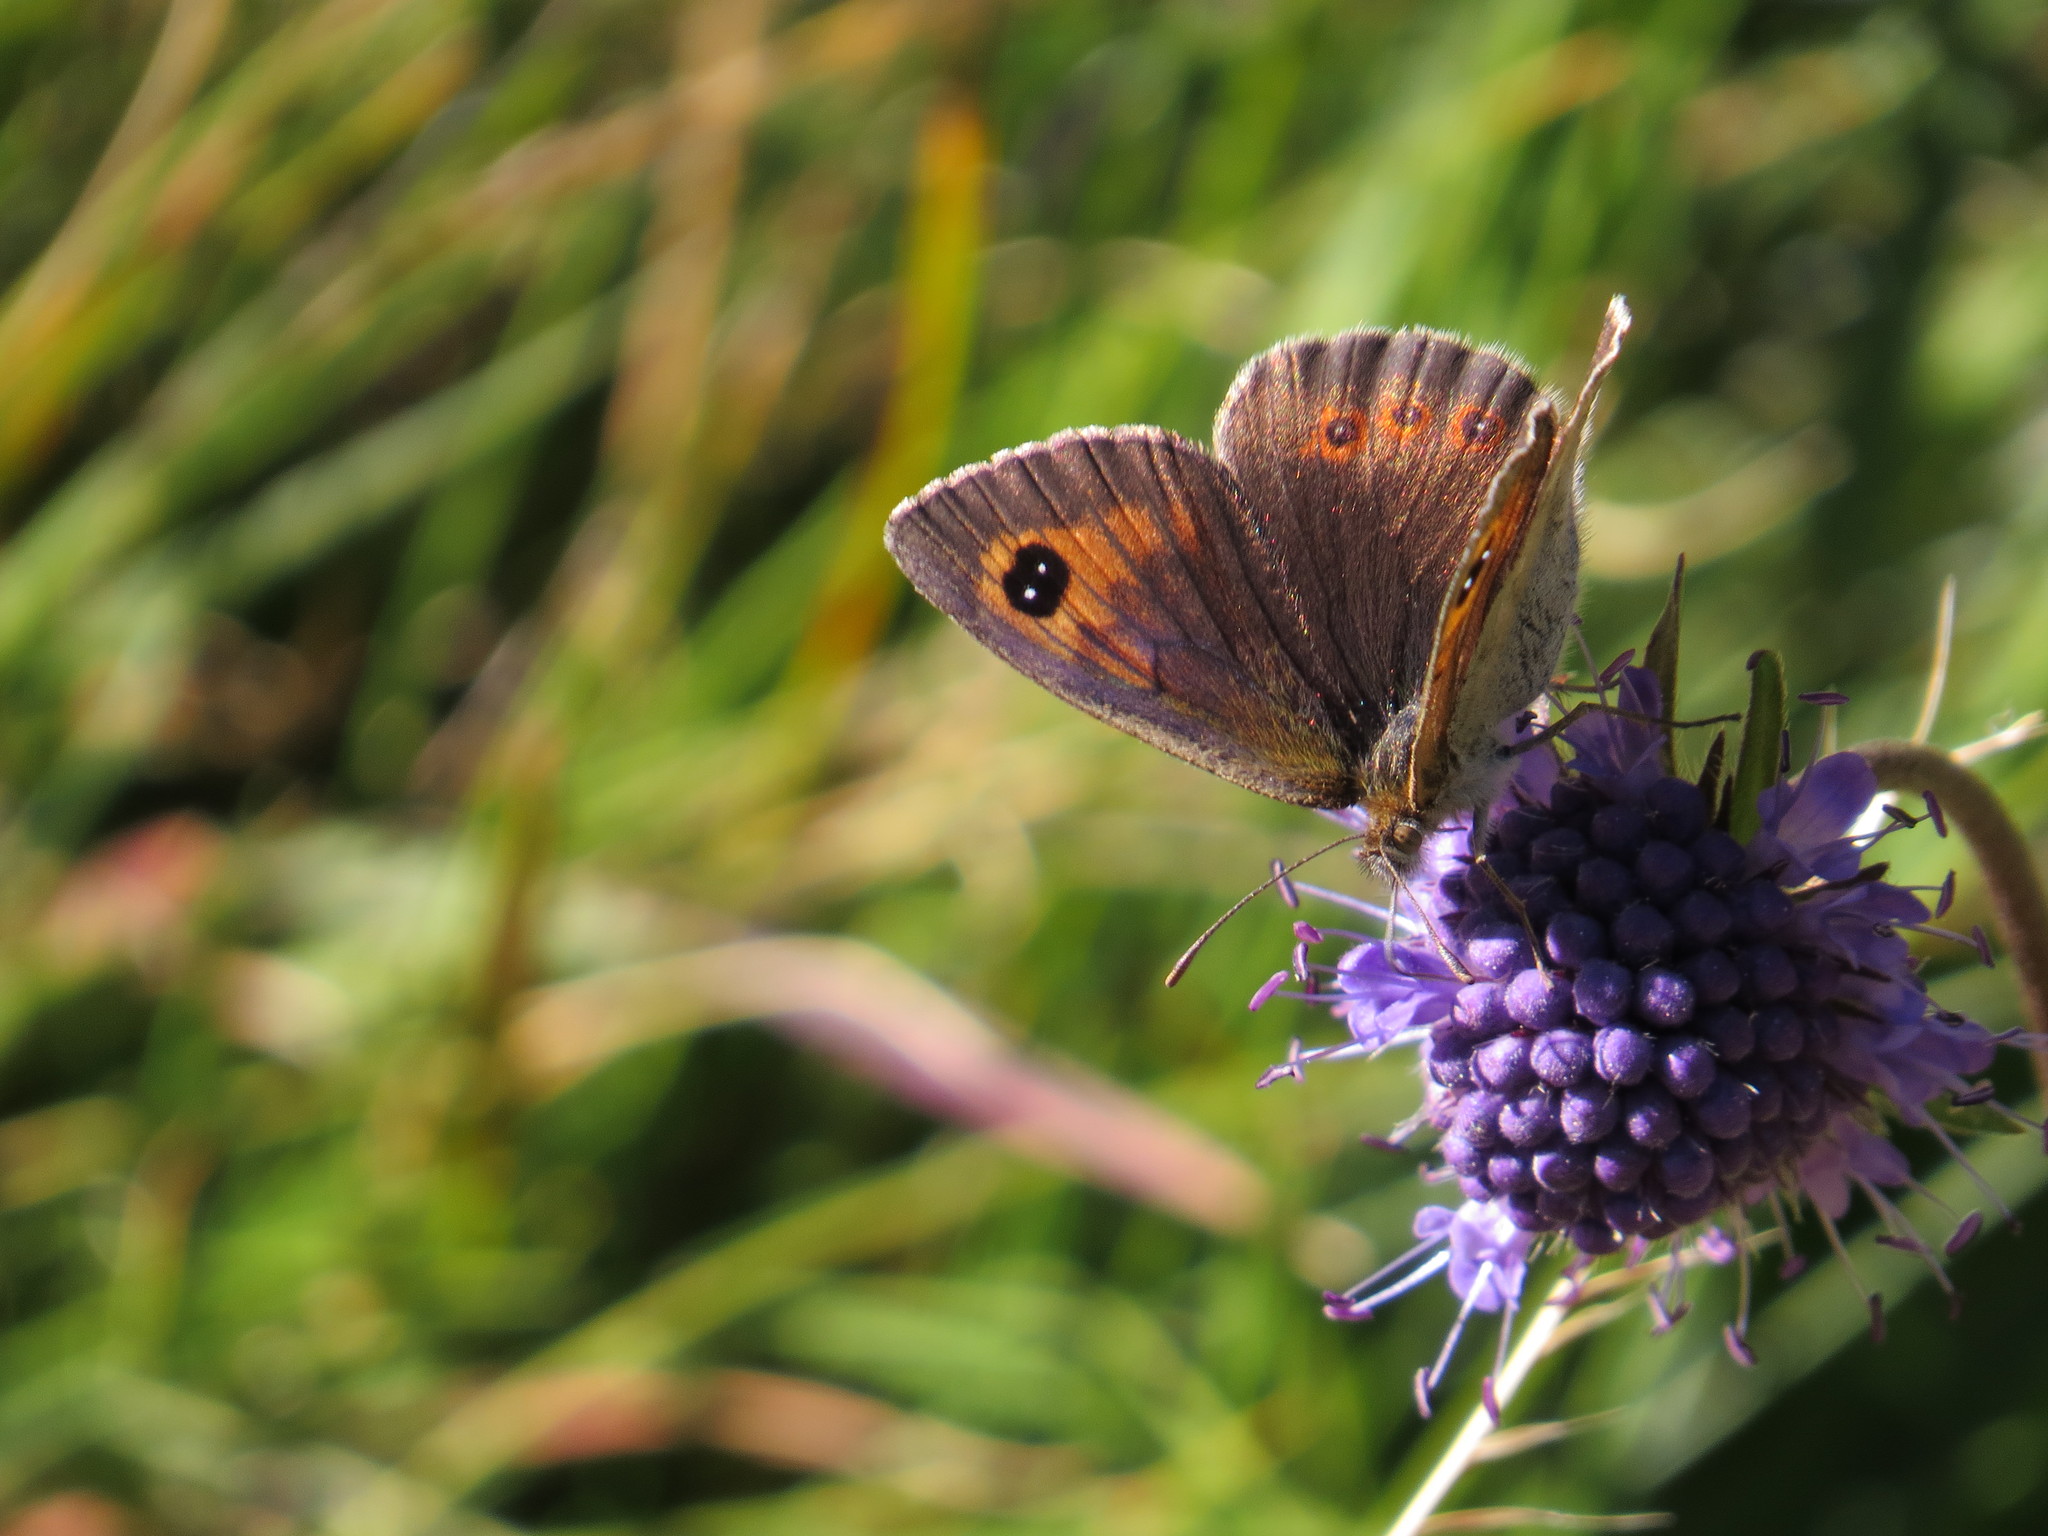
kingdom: Animalia
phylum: Arthropoda
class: Insecta
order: Lepidoptera
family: Nymphalidae
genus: Erebia
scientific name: Erebia tyndarus
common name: Swiss brassy ringlet
